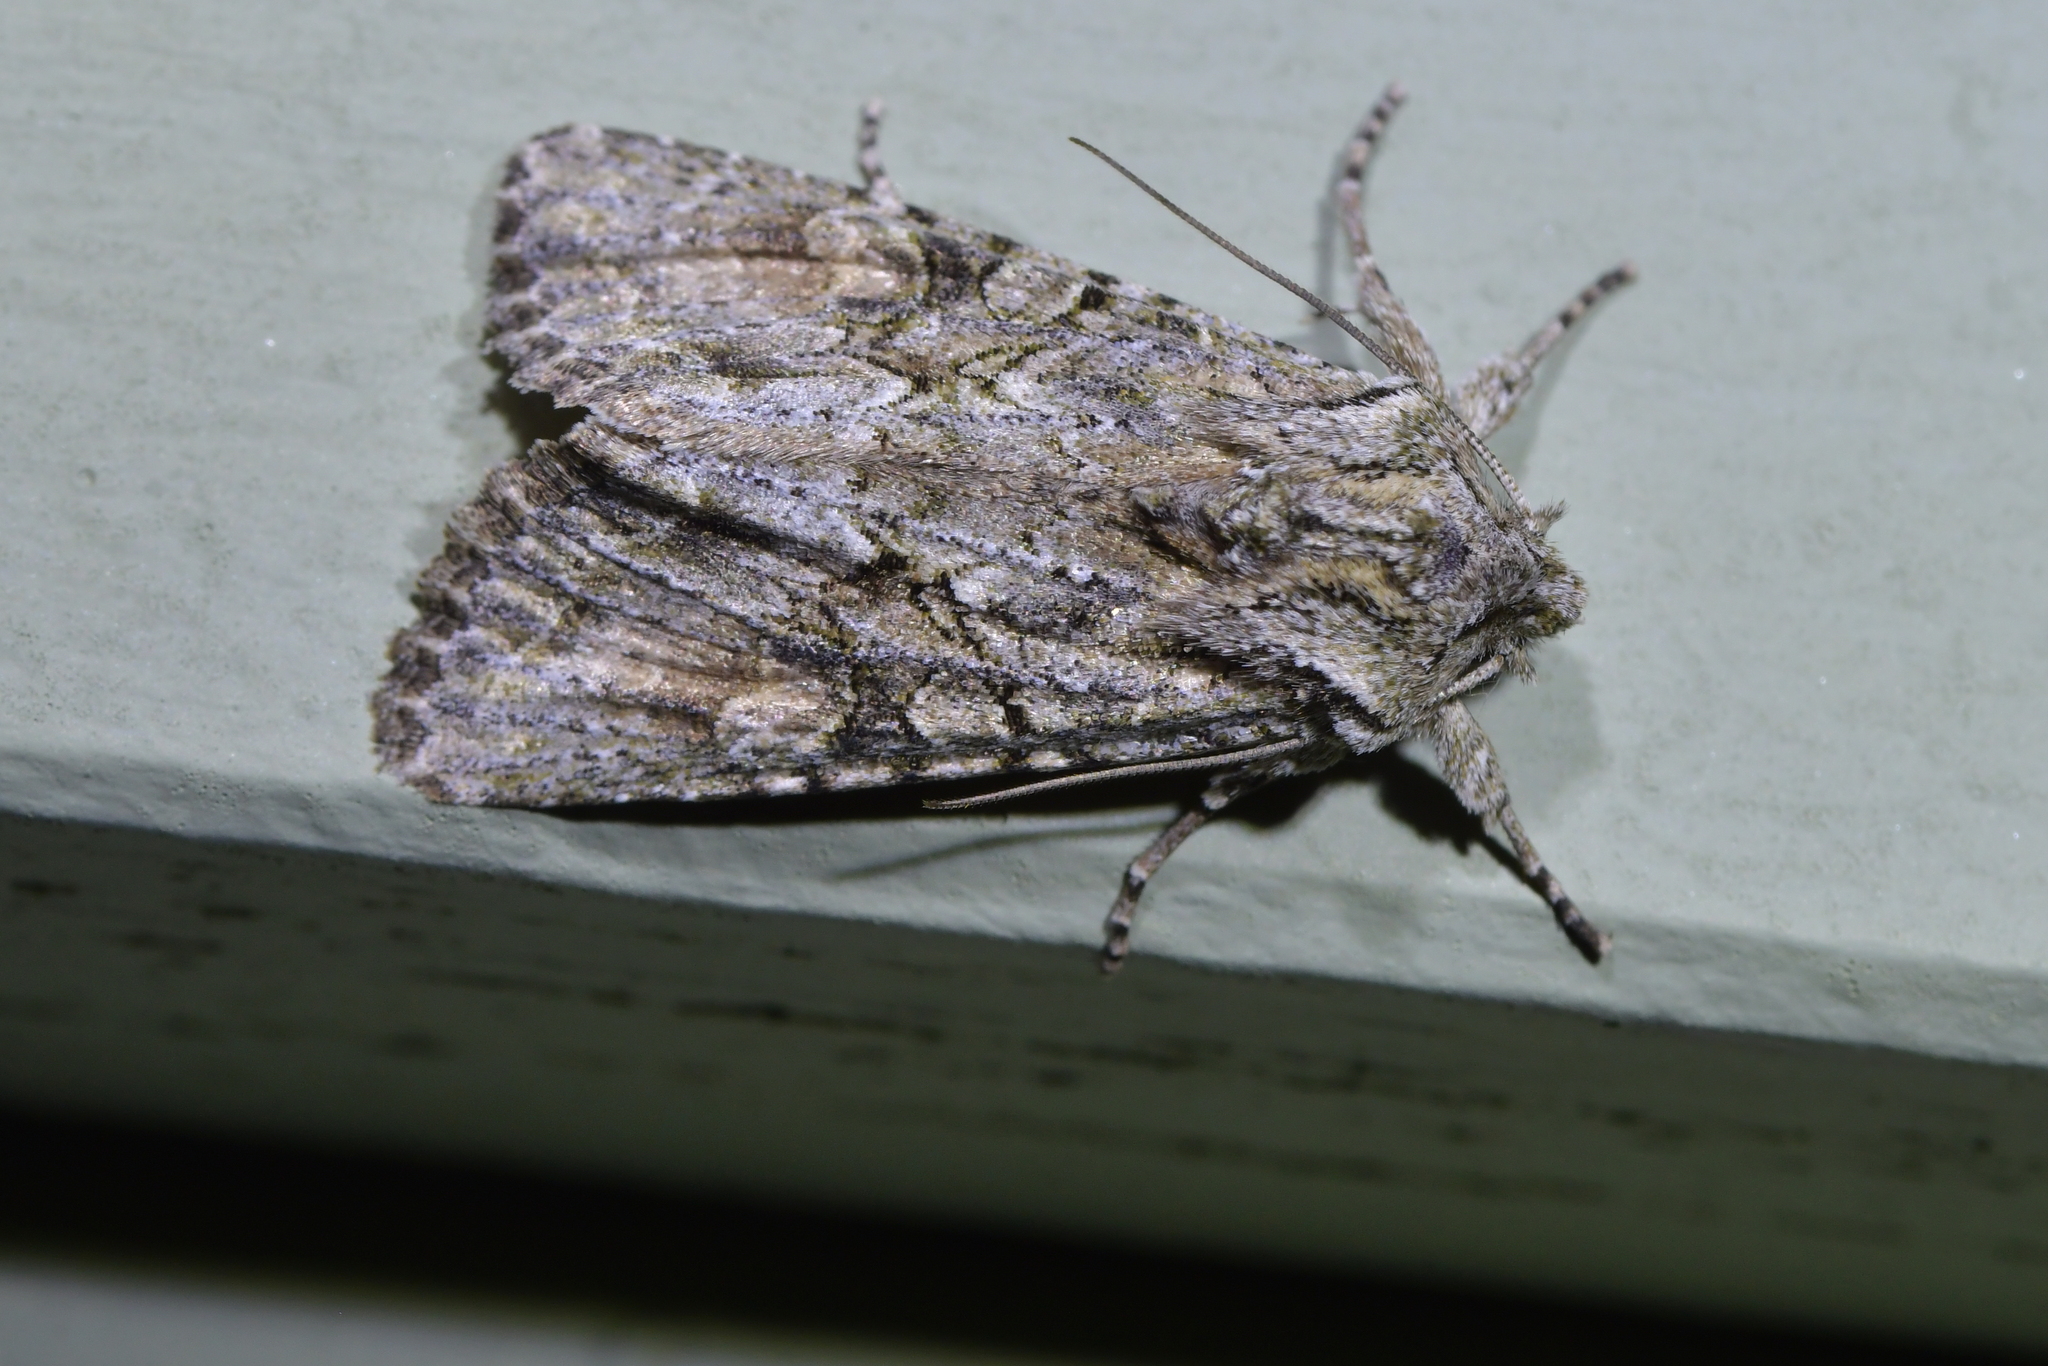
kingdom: Animalia
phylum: Arthropoda
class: Insecta
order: Lepidoptera
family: Noctuidae
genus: Ichneutica
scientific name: Ichneutica mutans
